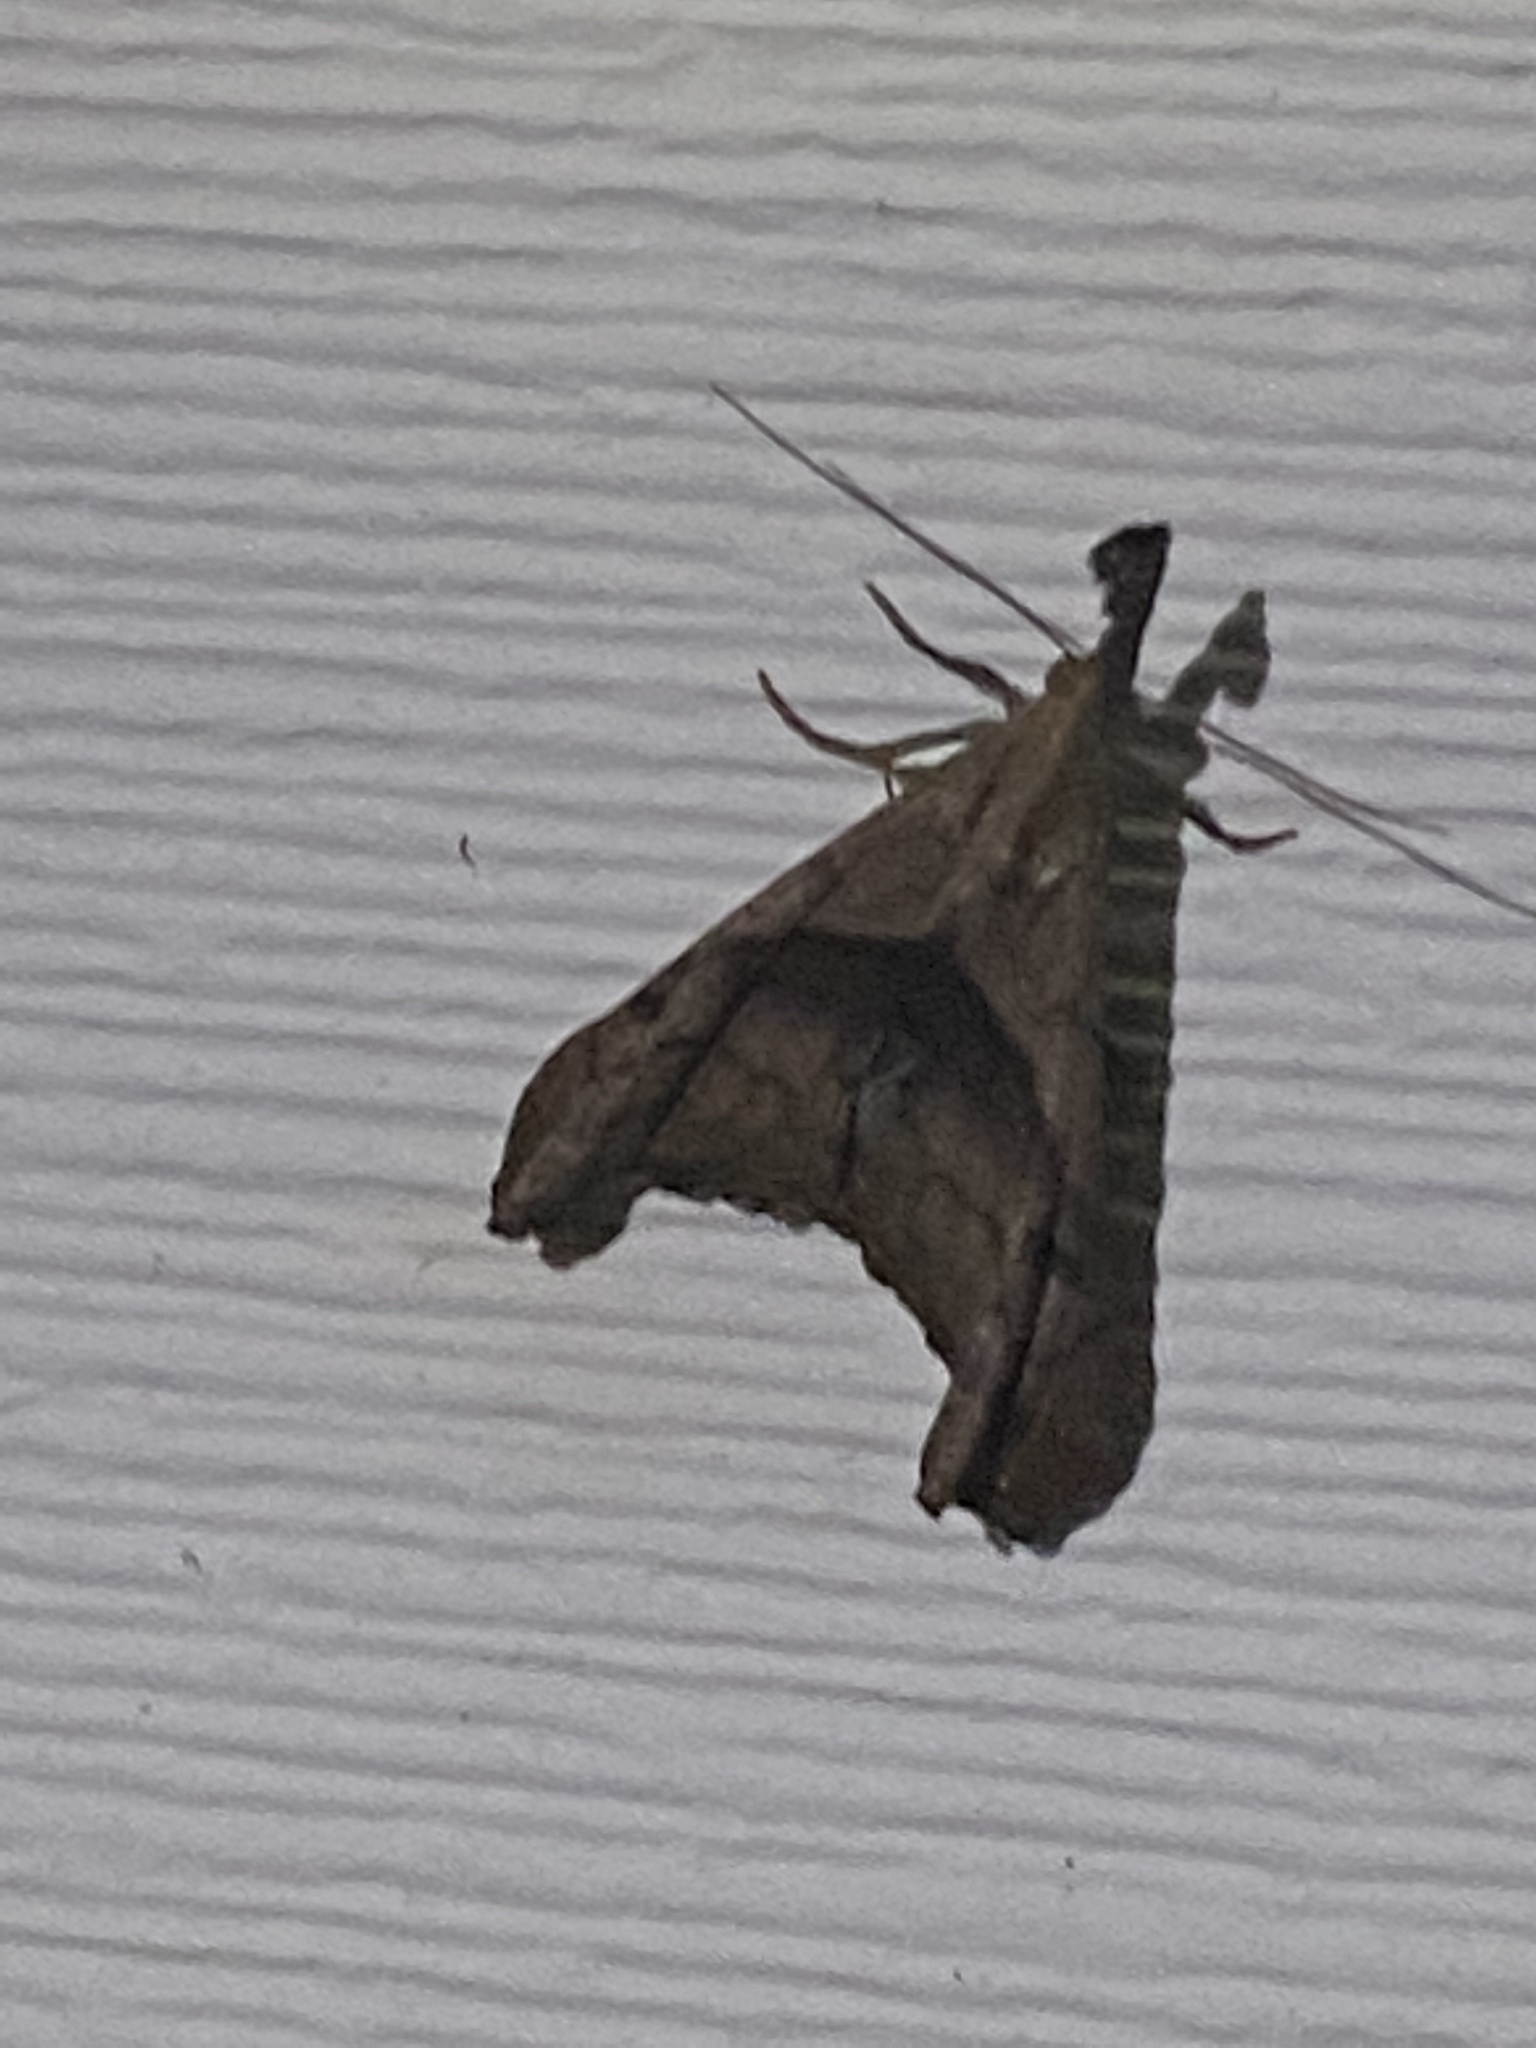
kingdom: Animalia
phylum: Arthropoda
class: Insecta
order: Lepidoptera
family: Erebidae
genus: Palthis
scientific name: Palthis angulalis
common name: Dark-spotted palthis moth
